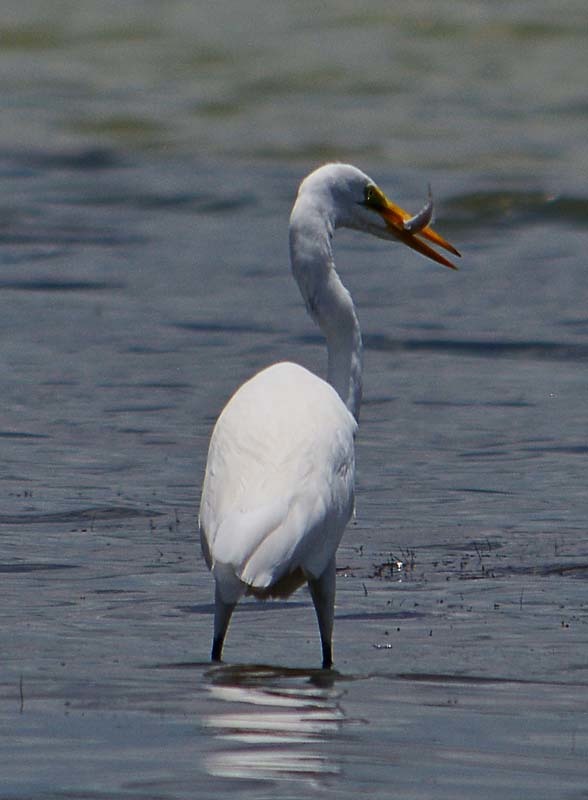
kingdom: Animalia
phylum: Chordata
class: Aves
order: Pelecaniformes
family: Ardeidae
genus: Ardea
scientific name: Ardea alba
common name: Great egret
